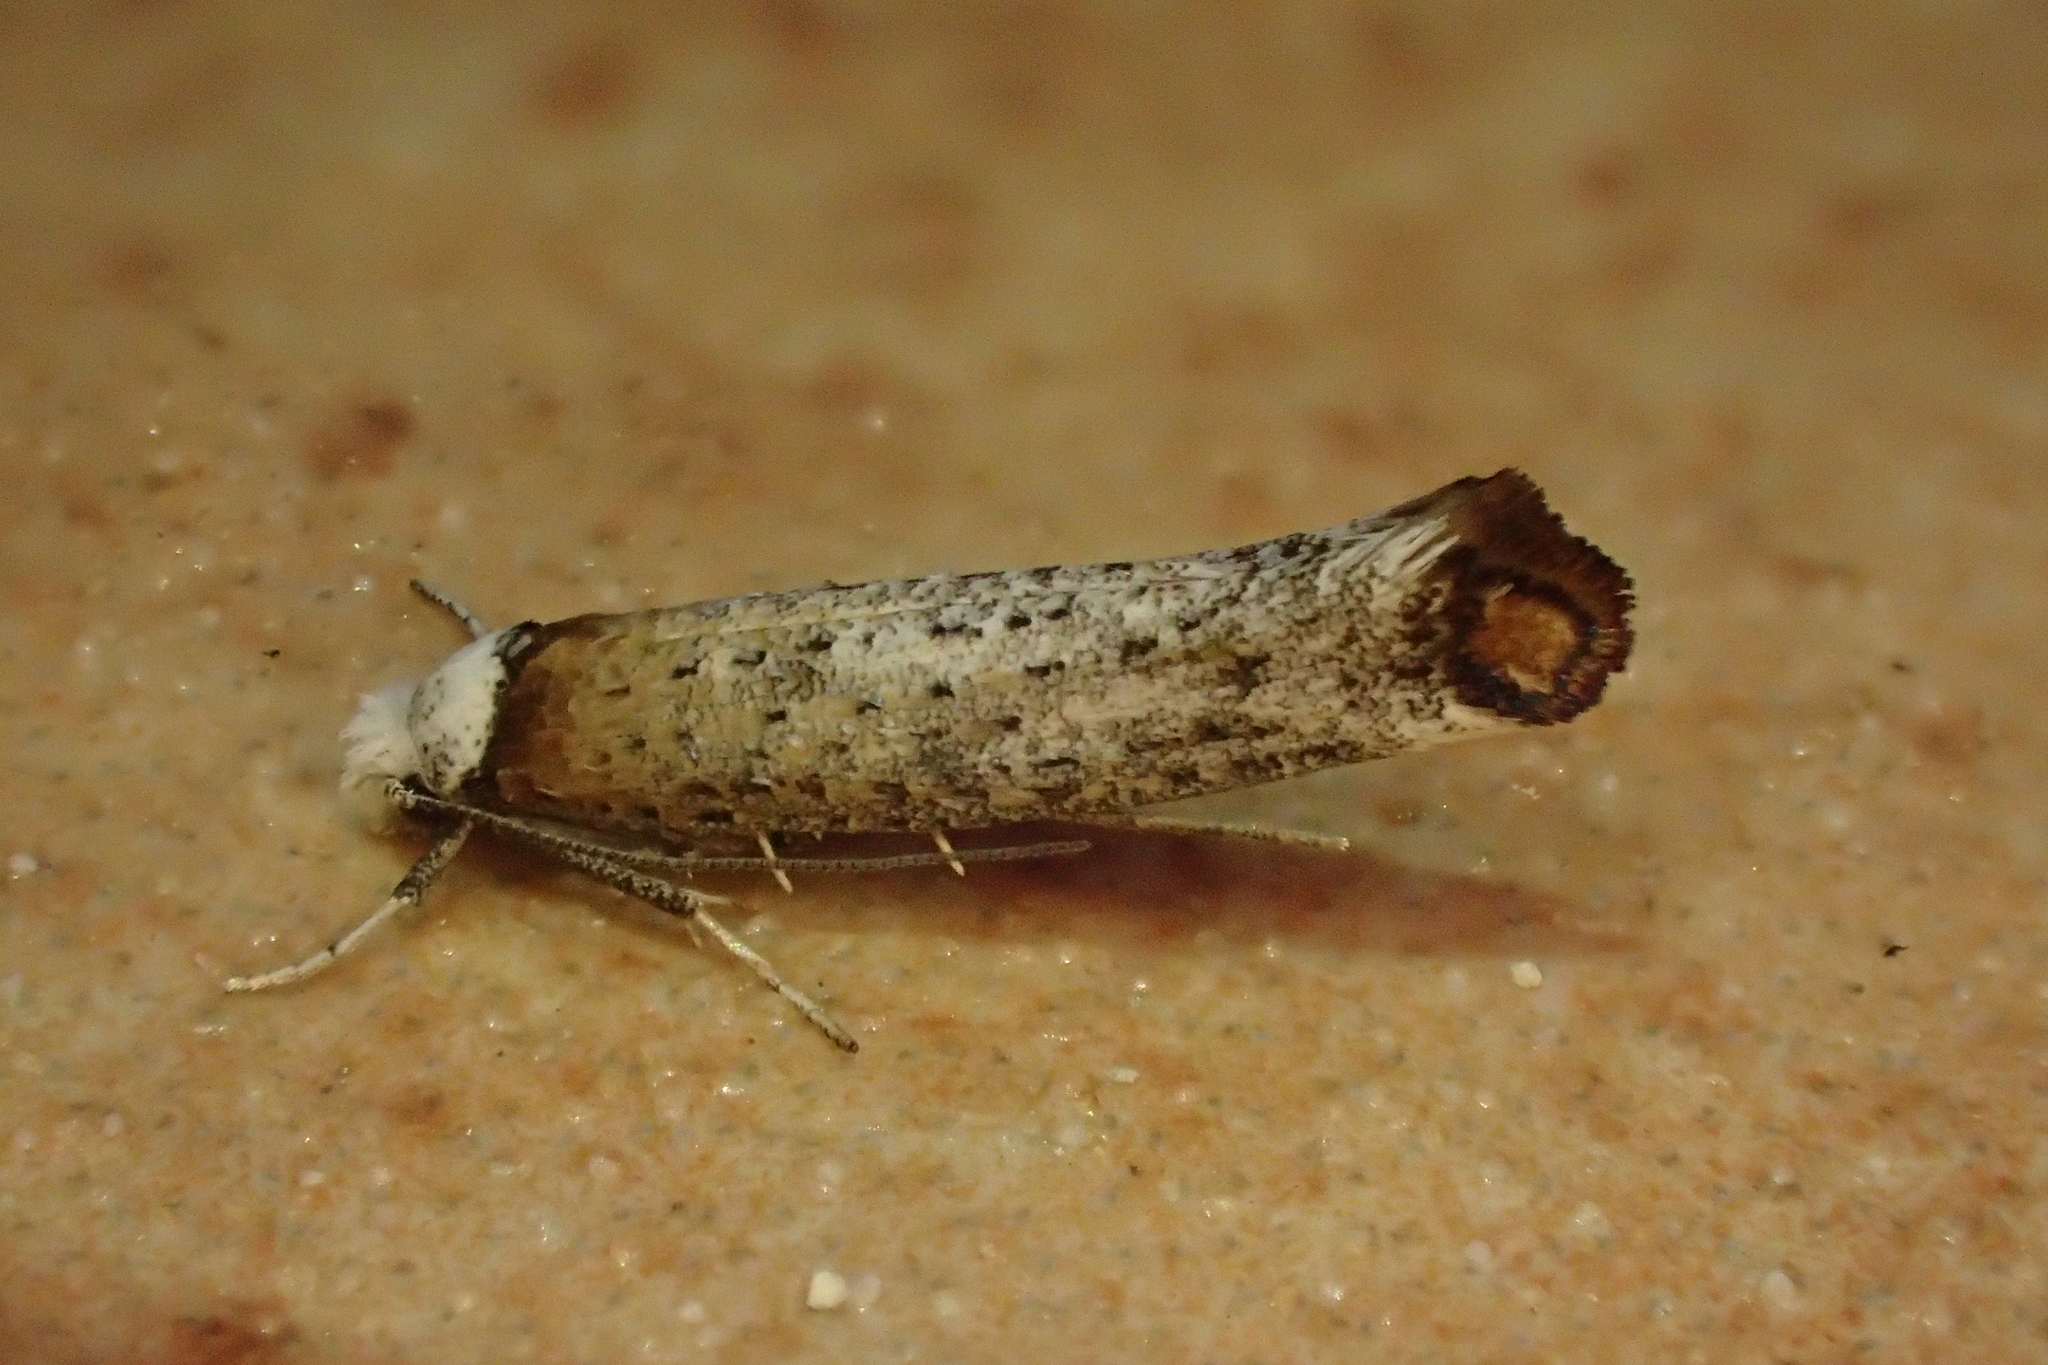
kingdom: Animalia
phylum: Arthropoda
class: Insecta
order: Lepidoptera
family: Yponomeutidae
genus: Pseudoswammerdamia
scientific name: Pseudoswammerdamia combinella
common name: Copper-tipped ermine
